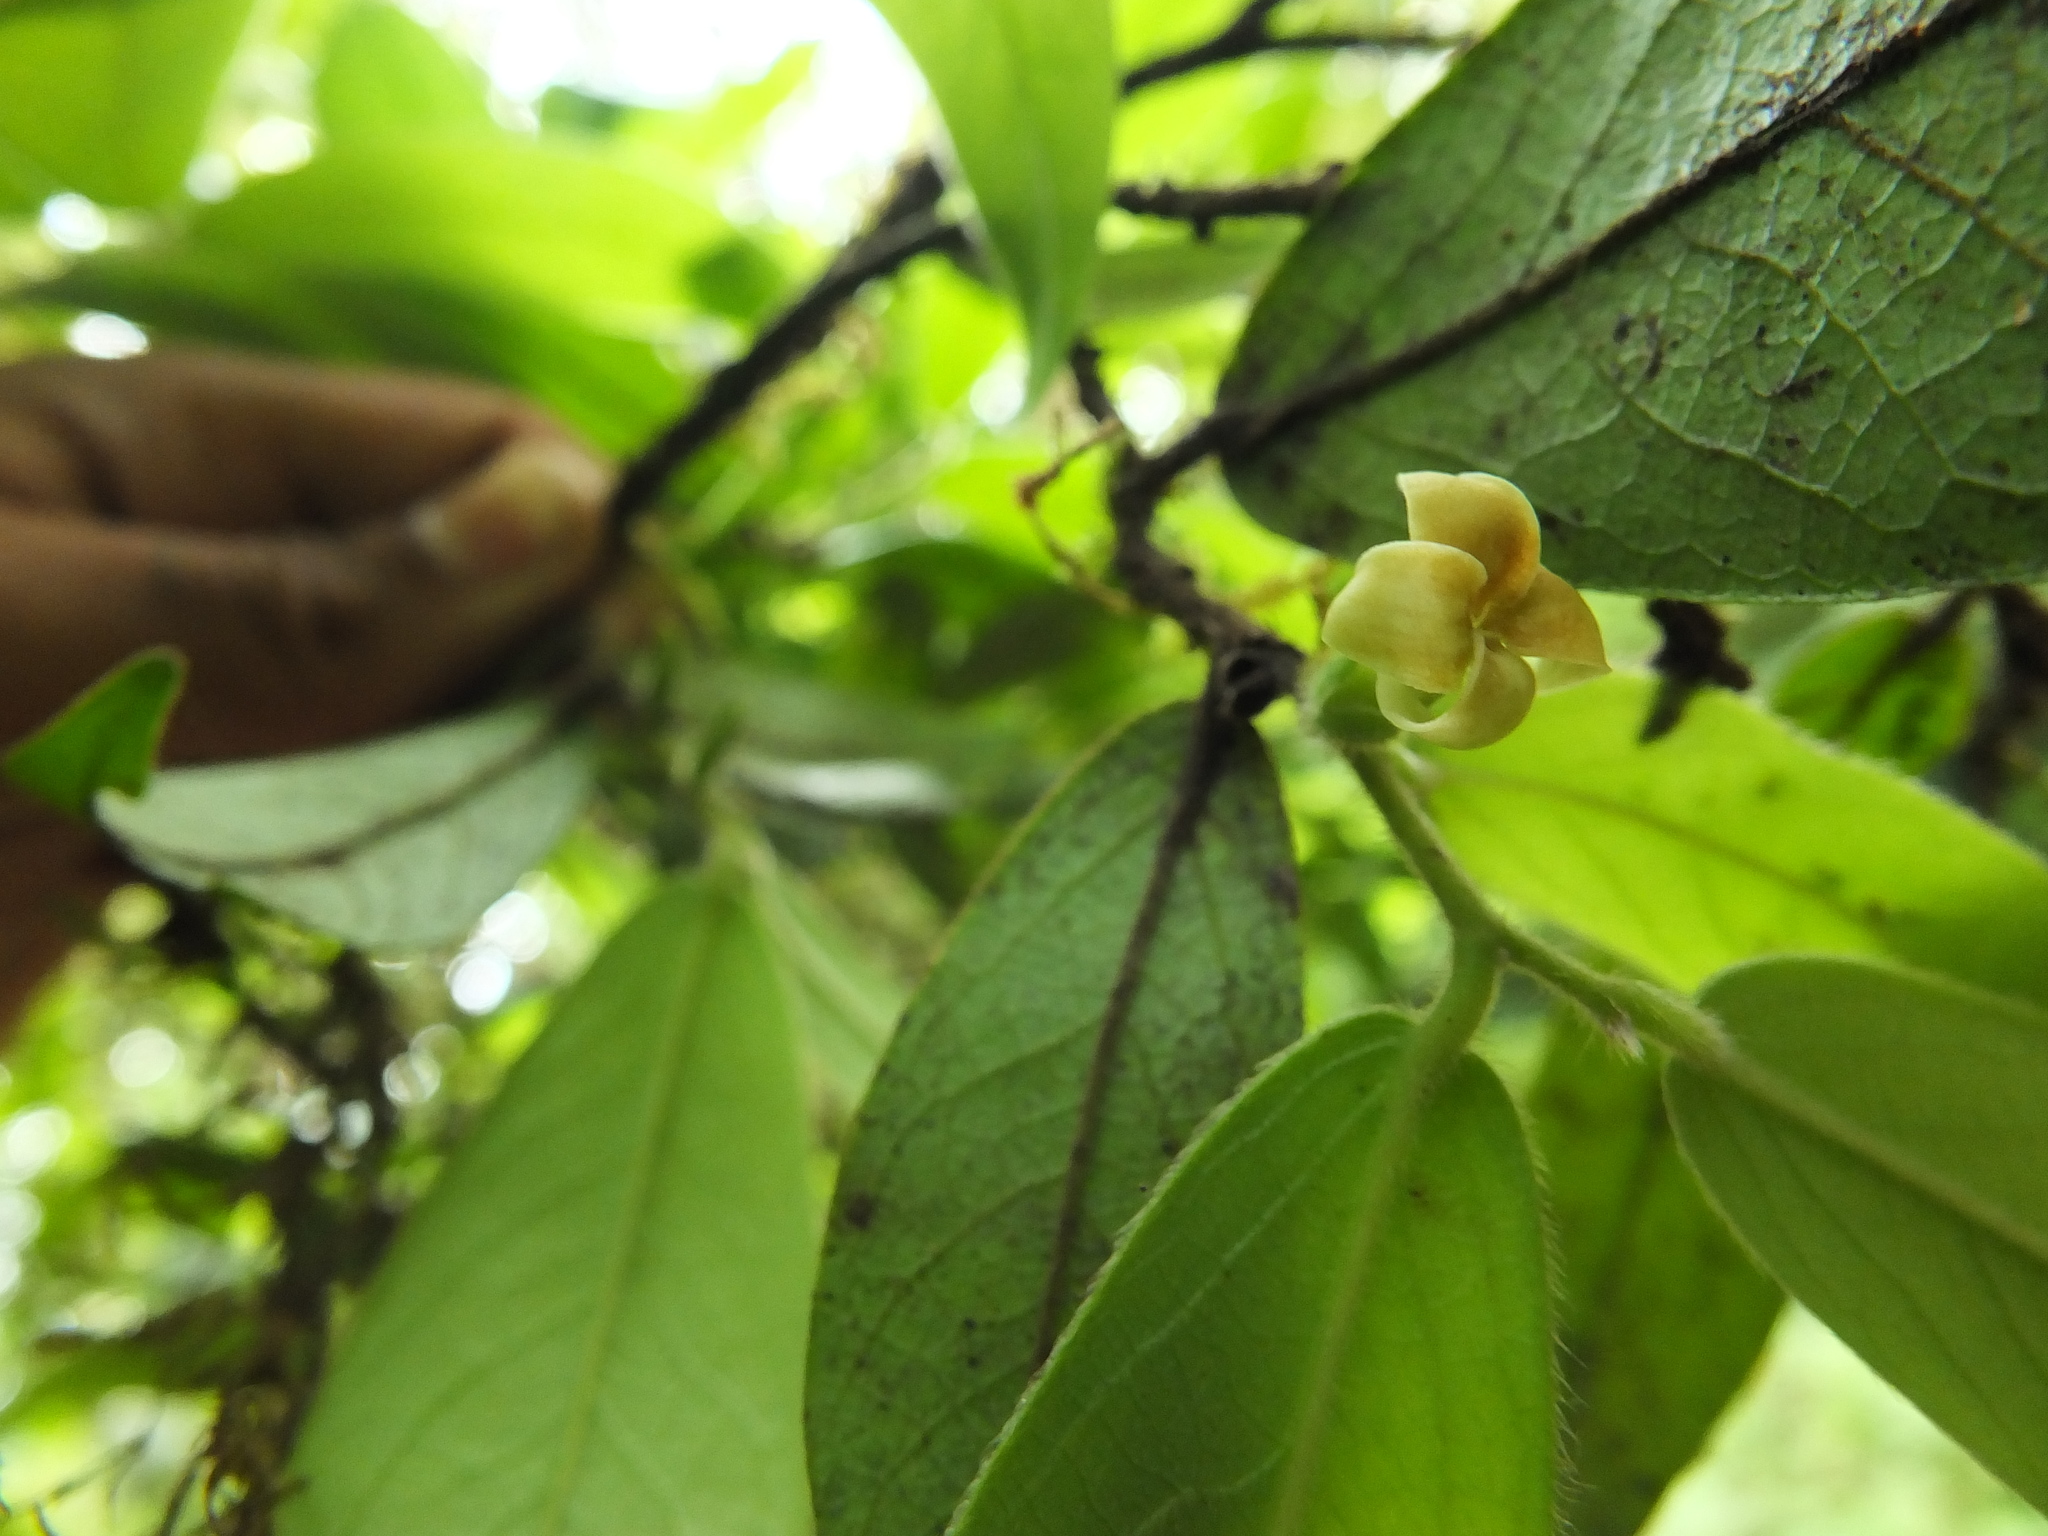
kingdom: Plantae
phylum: Tracheophyta
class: Magnoliopsida
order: Ericales
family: Ebenaceae
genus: Diospyros
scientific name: Diospyros saldanhae
